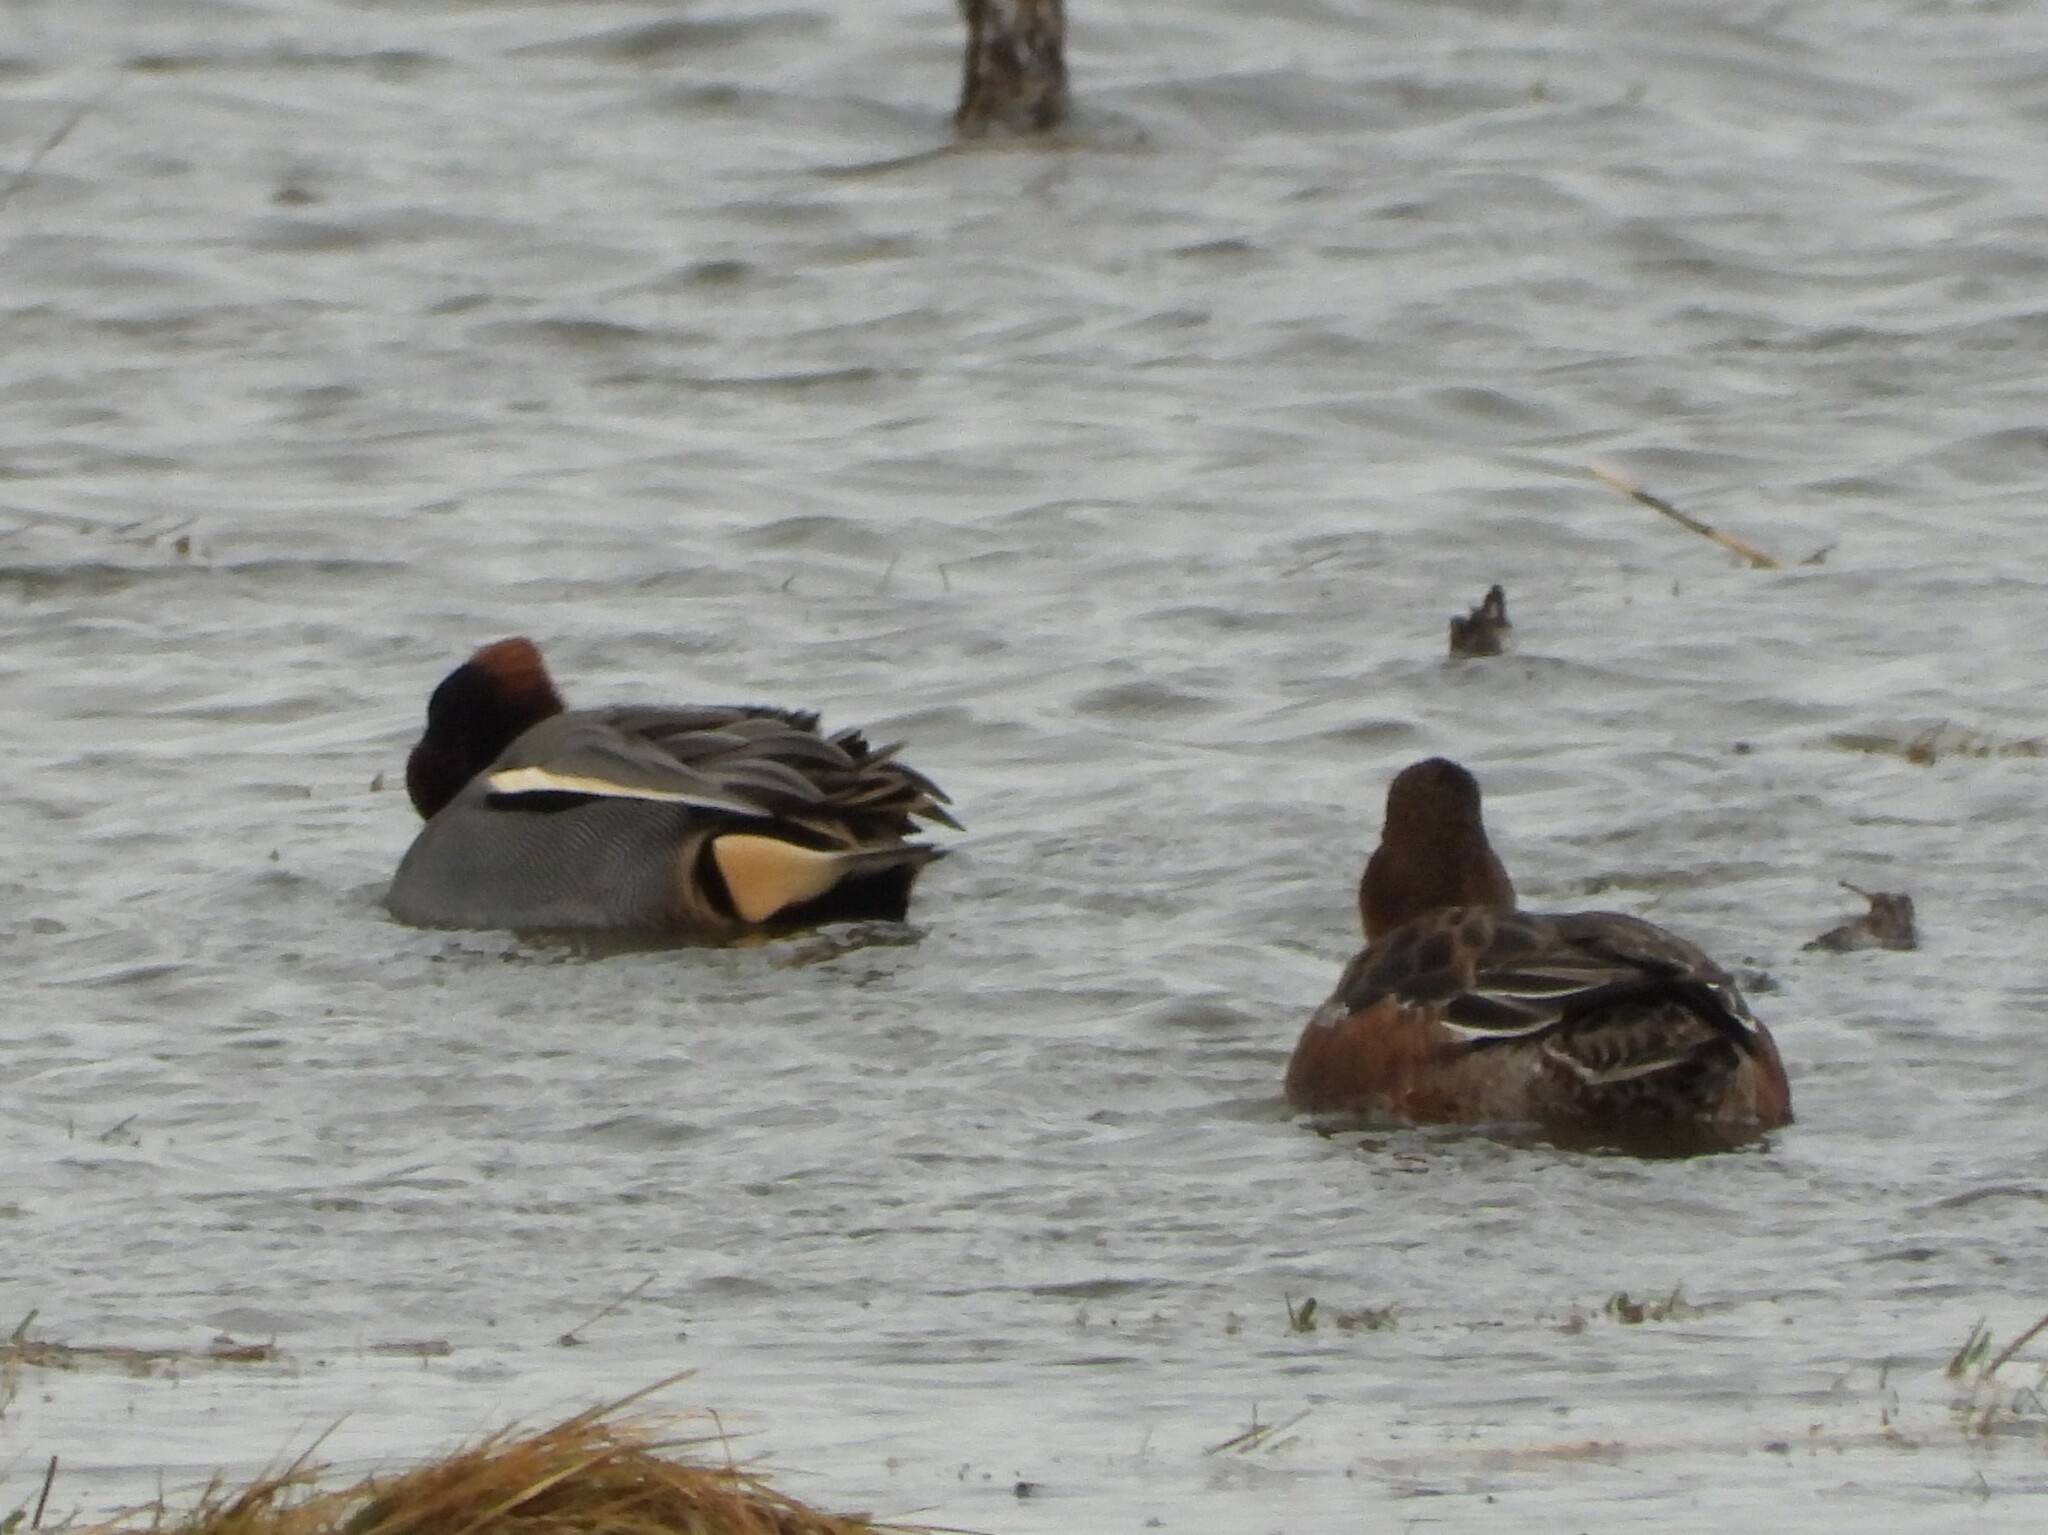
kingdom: Animalia
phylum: Chordata
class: Aves
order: Anseriformes
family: Anatidae
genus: Anas
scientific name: Anas crecca
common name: Eurasian teal
